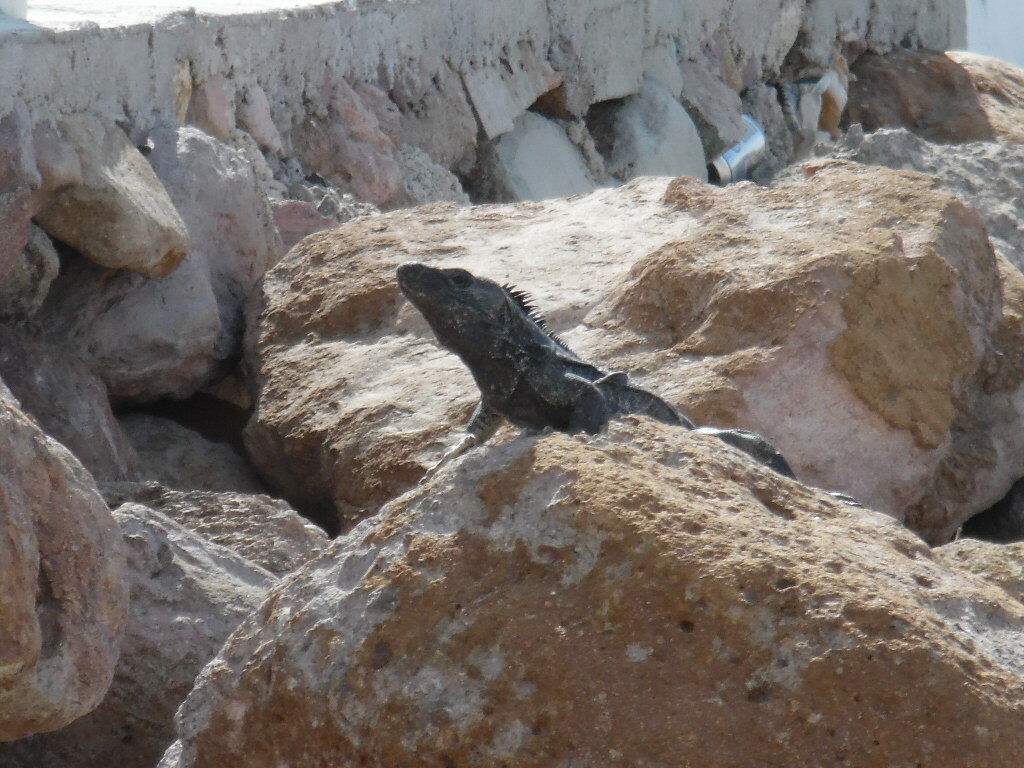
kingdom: Animalia
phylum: Chordata
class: Squamata
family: Iguanidae
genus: Ctenosaura
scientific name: Ctenosaura pectinata
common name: Guerreran spiny-tailed iguana
